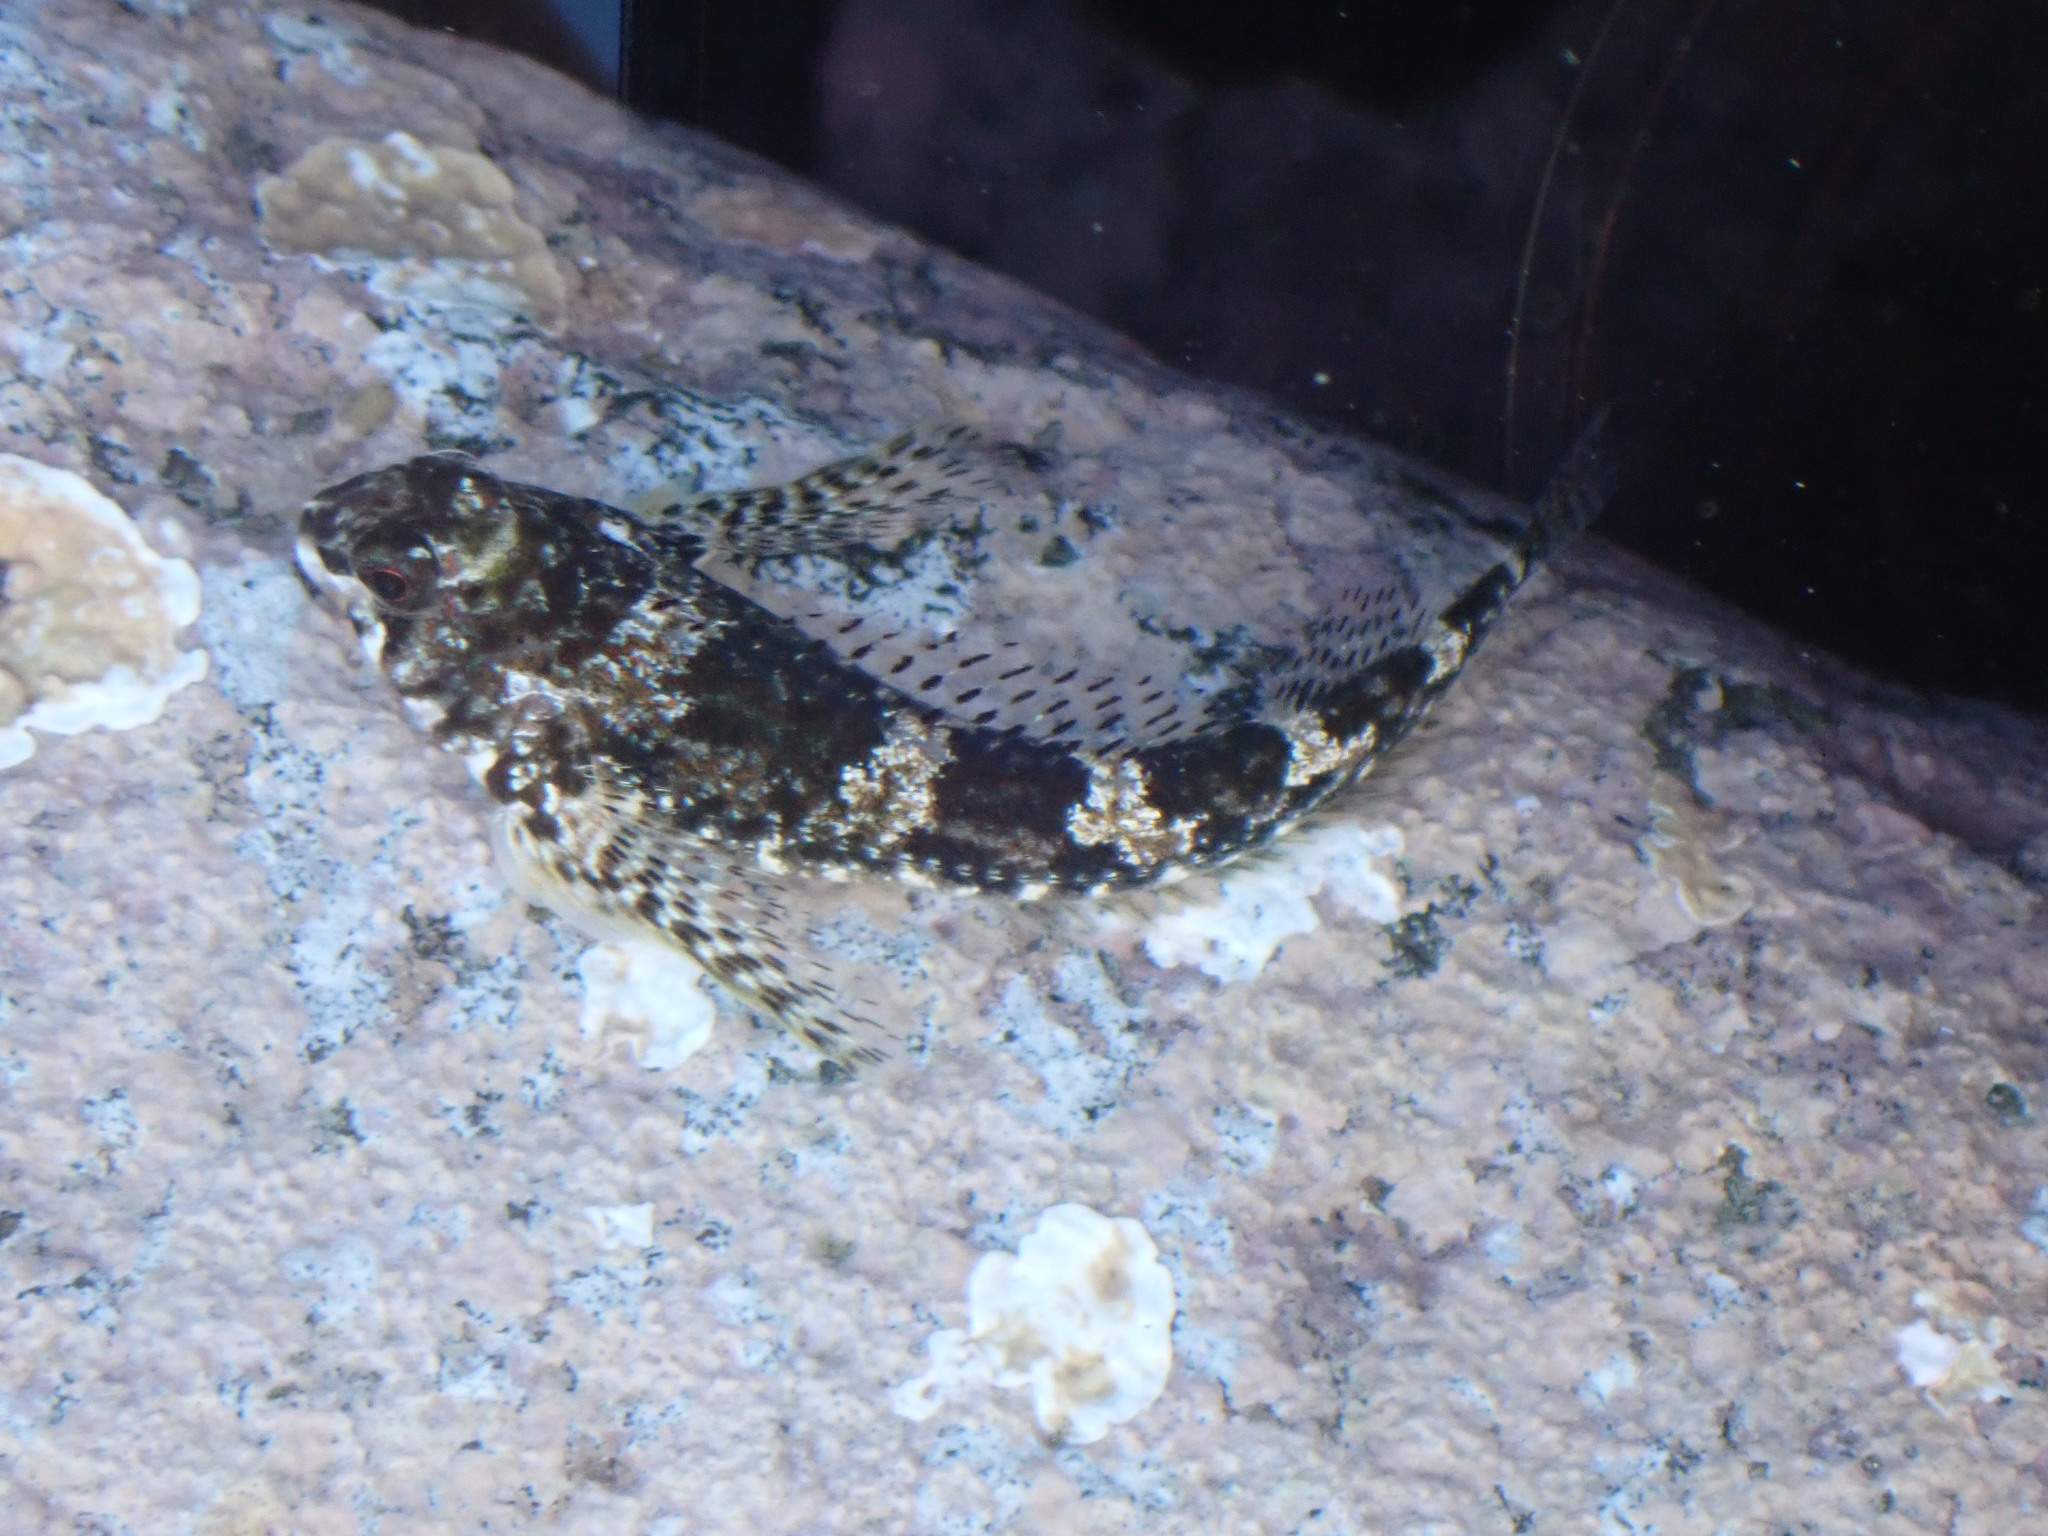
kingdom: Animalia
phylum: Chordata
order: Perciformes
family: Tripterygiidae
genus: Bellapiscis
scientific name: Bellapiscis lesleyae
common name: Mottled twister
